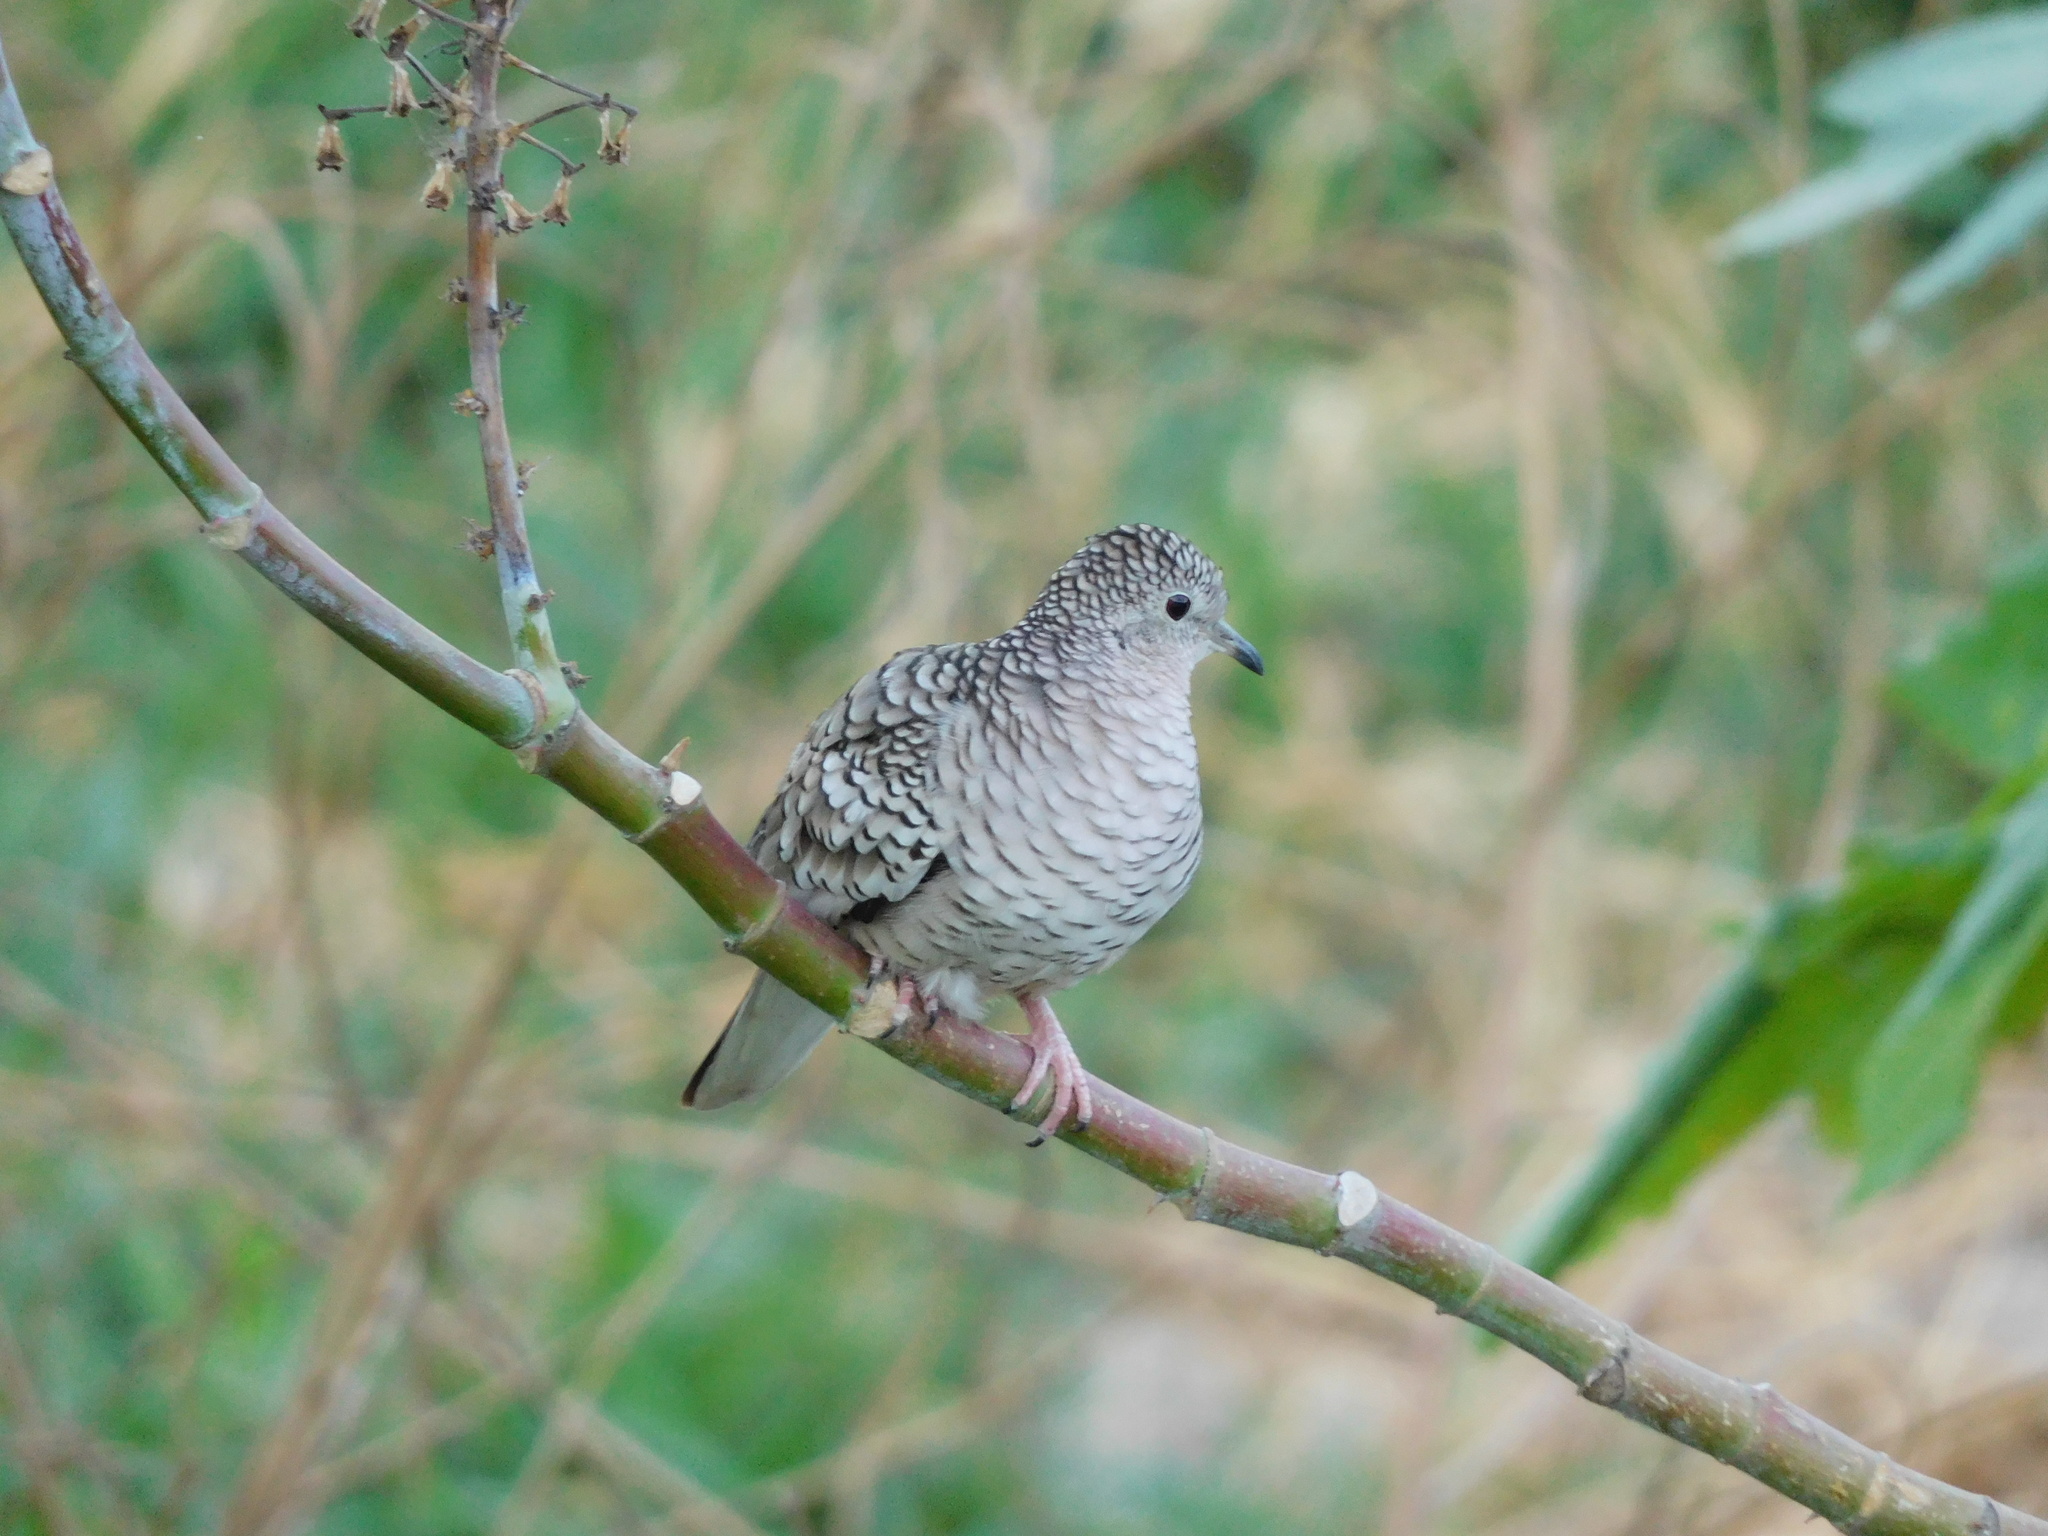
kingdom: Animalia
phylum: Chordata
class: Aves
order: Columbiformes
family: Columbidae
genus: Columbina
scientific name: Columbina squammata
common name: Scaled dove
